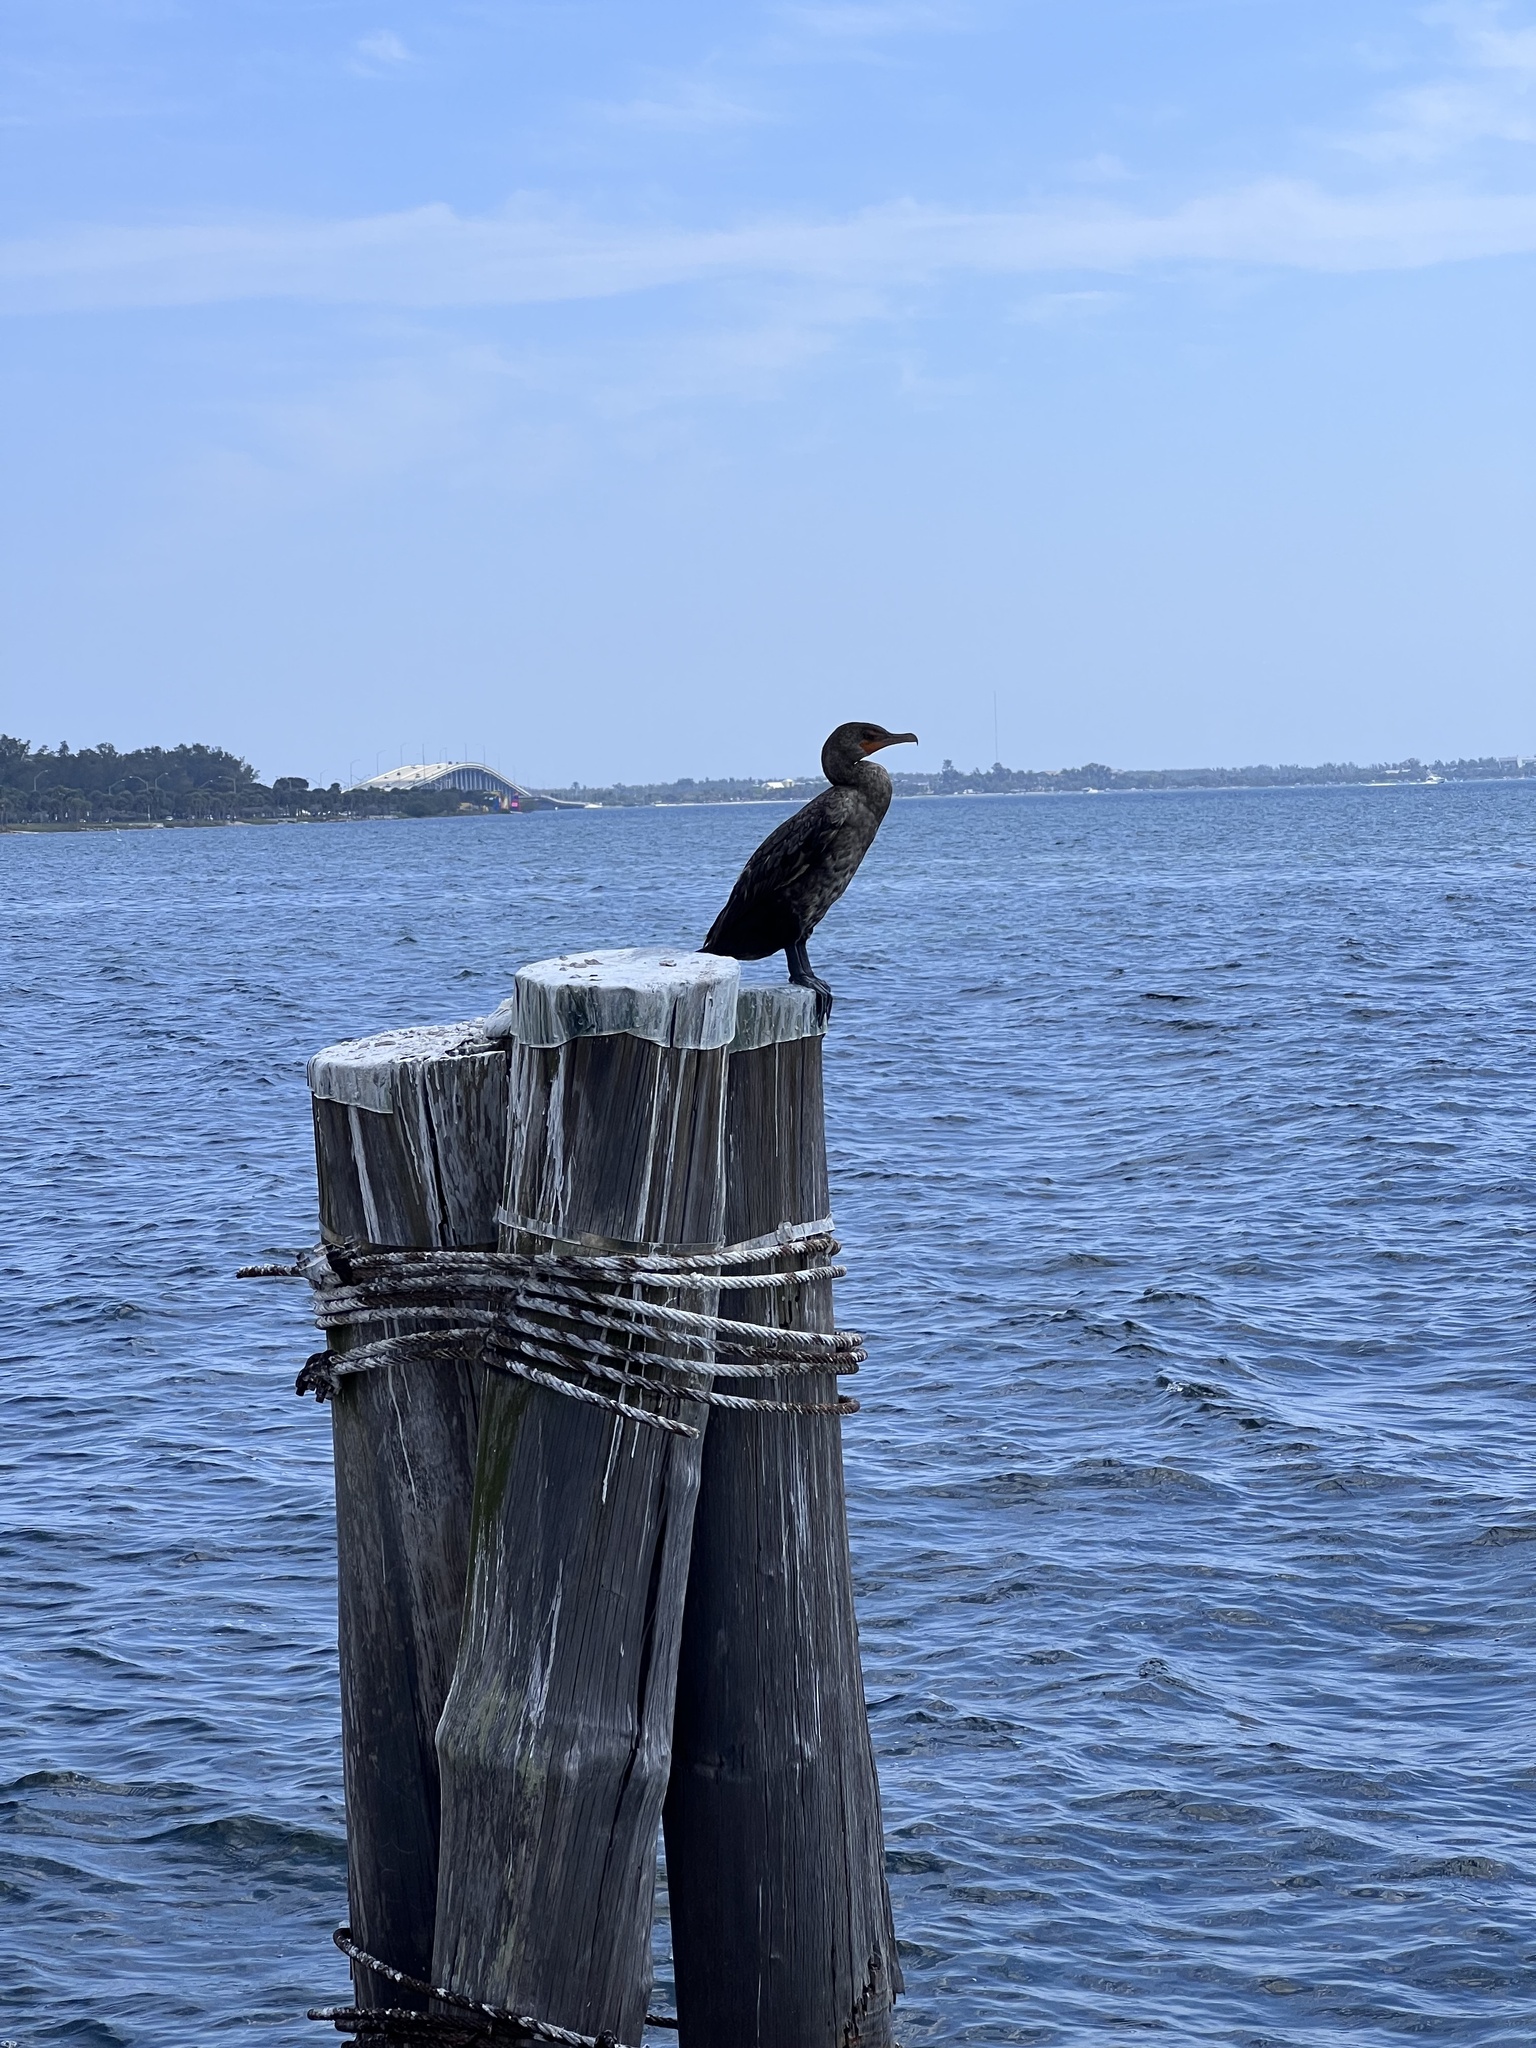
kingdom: Animalia
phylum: Chordata
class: Aves
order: Suliformes
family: Phalacrocoracidae
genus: Phalacrocorax
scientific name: Phalacrocorax auritus
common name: Double-crested cormorant
